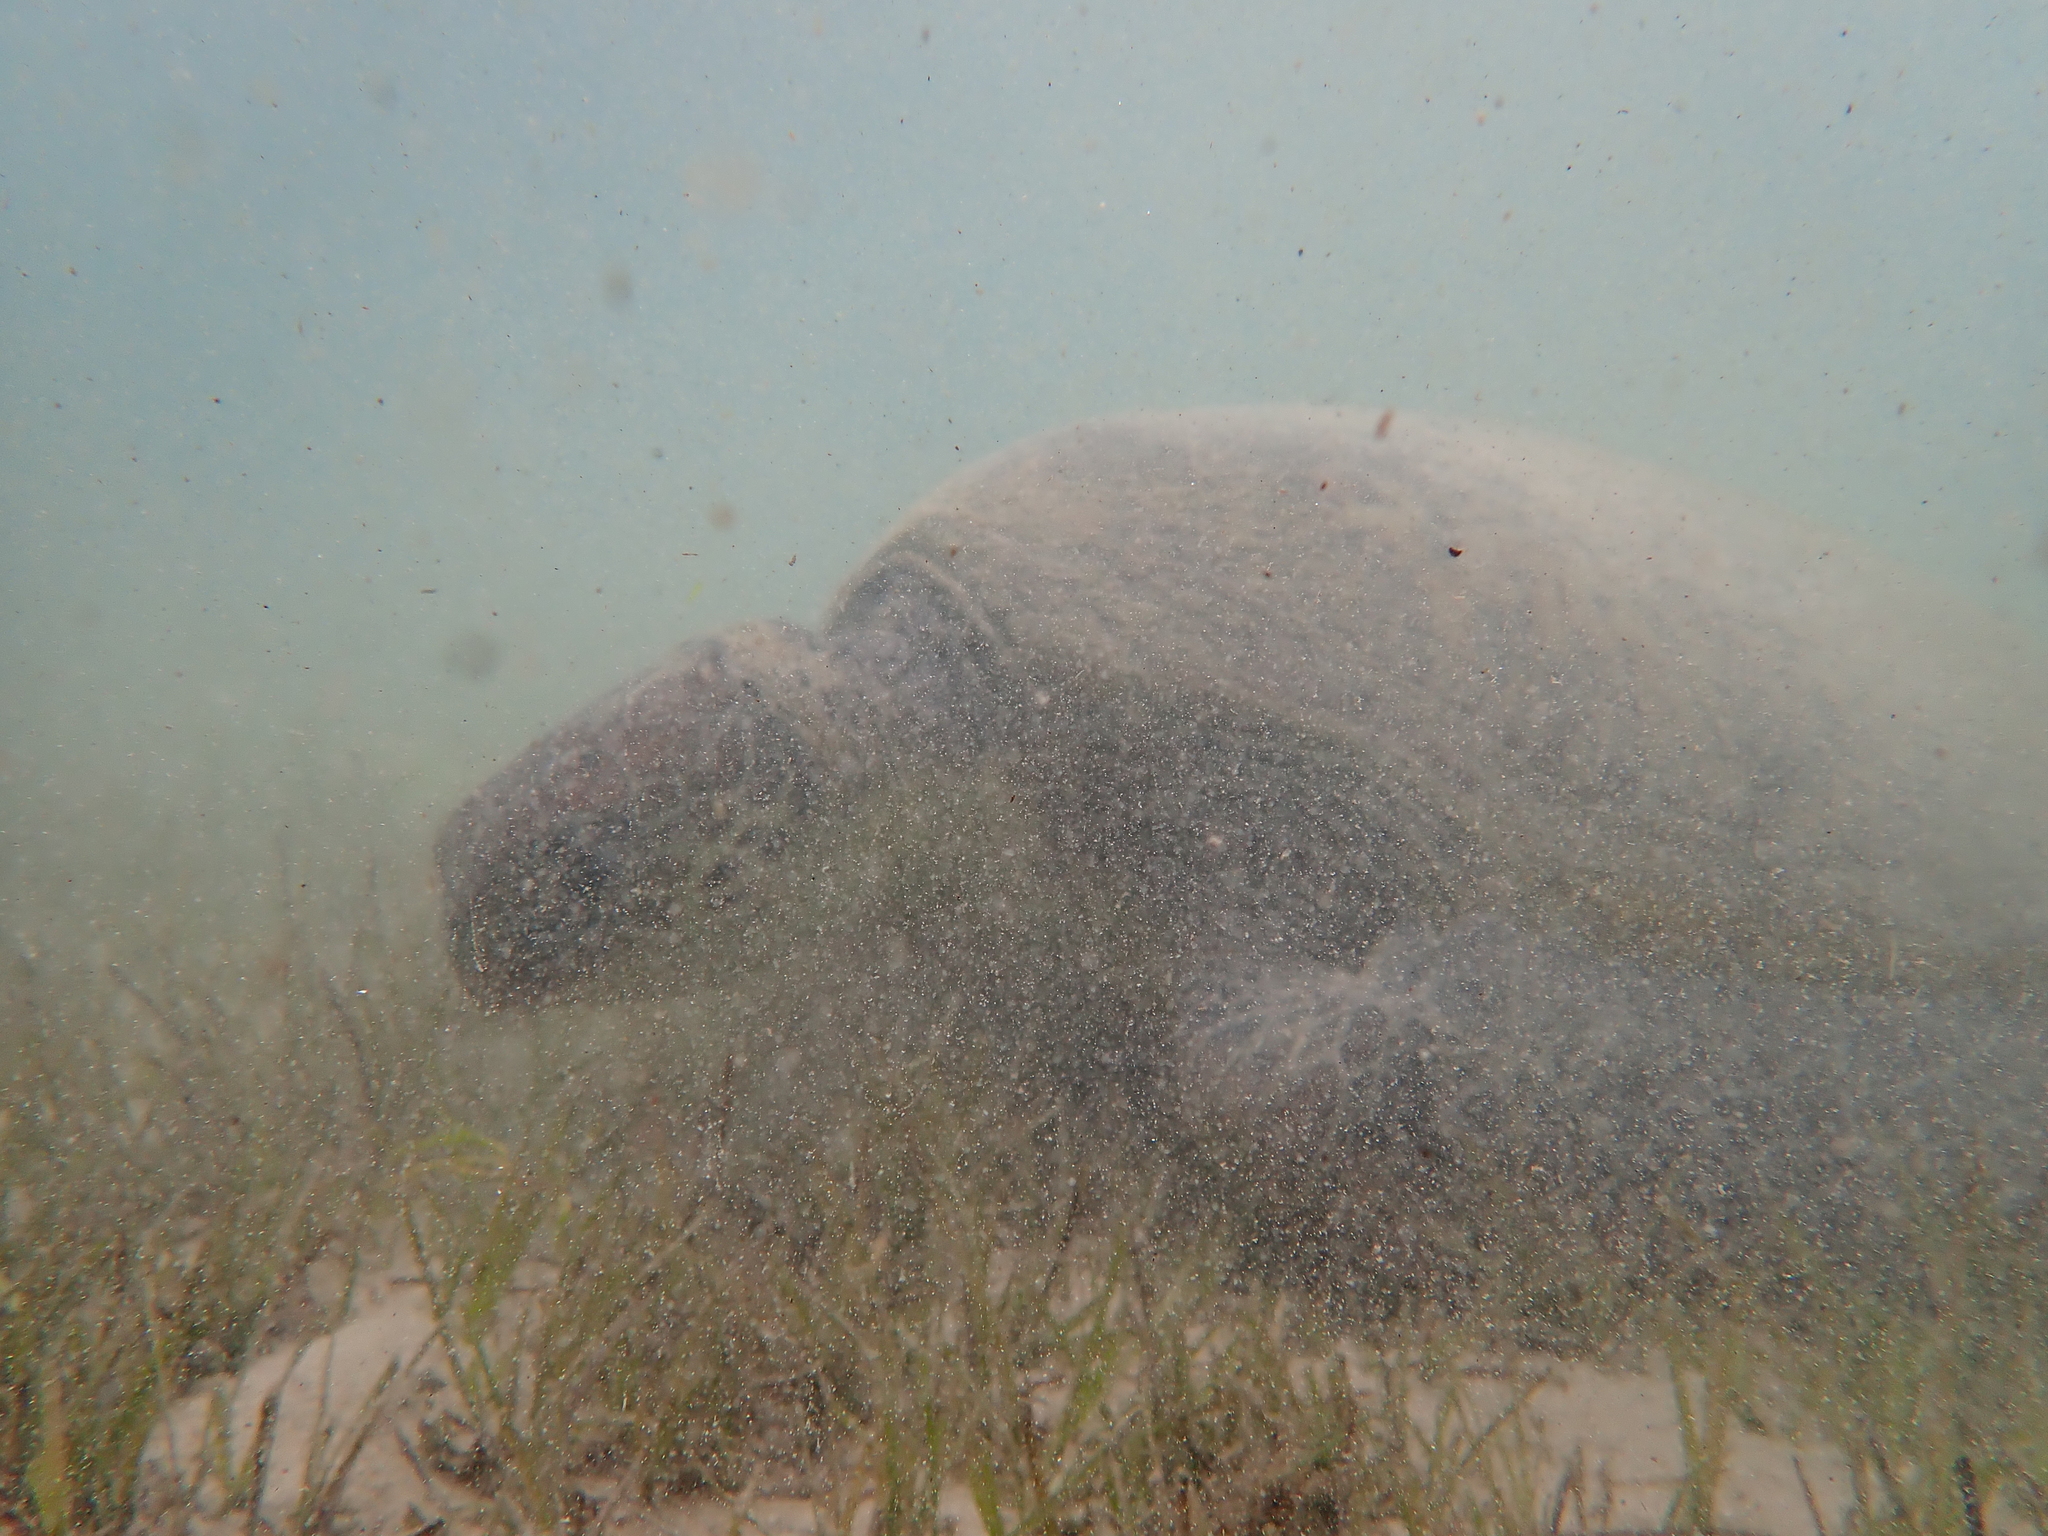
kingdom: Animalia
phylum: Chordata
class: Testudines
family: Cheloniidae
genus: Chelonia
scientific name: Chelonia mydas
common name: Green turtle
